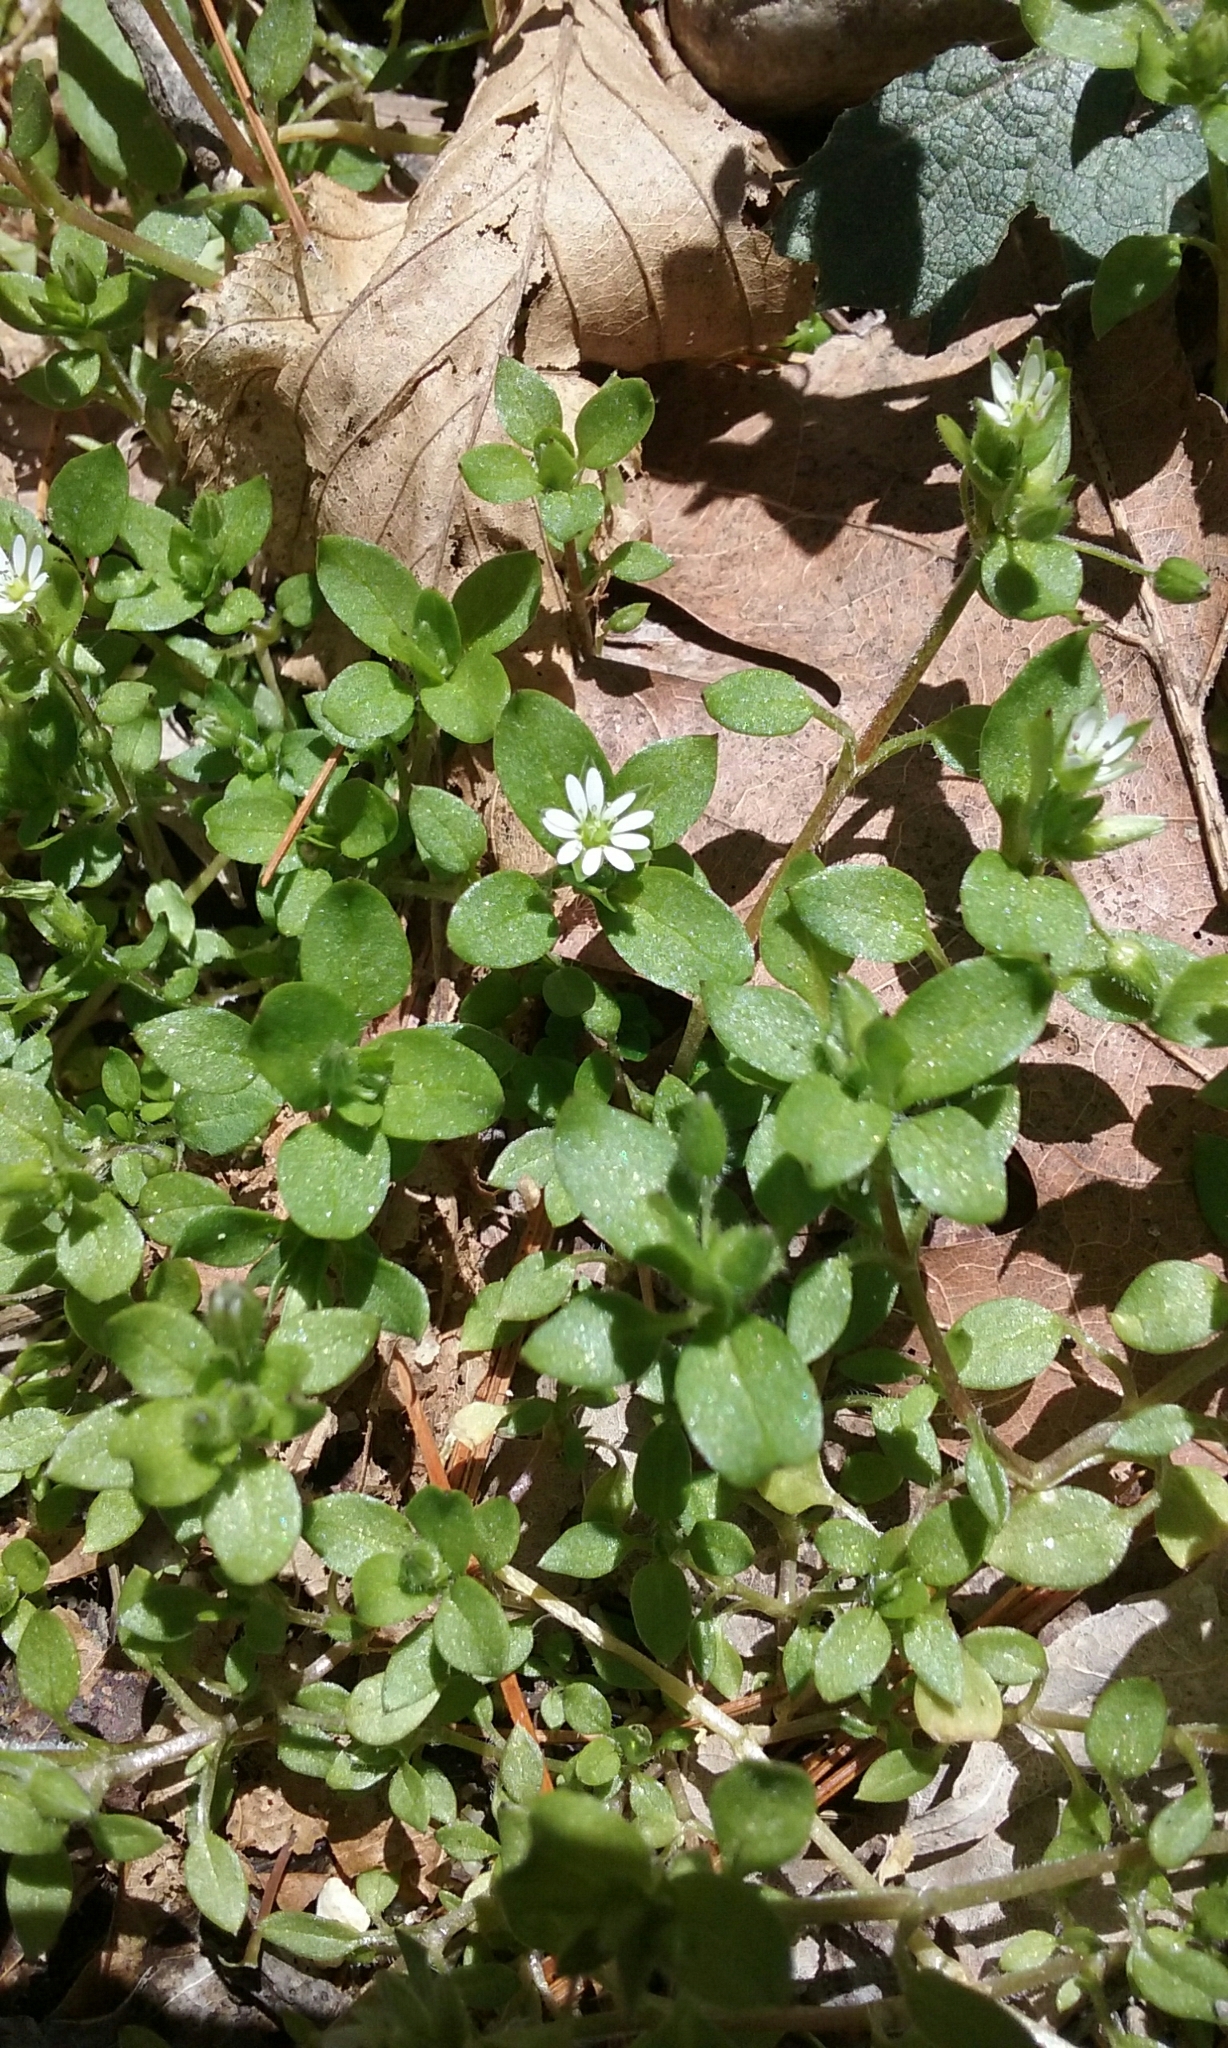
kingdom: Plantae
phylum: Tracheophyta
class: Magnoliopsida
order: Caryophyllales
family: Caryophyllaceae
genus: Stellaria
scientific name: Stellaria media
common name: Common chickweed
